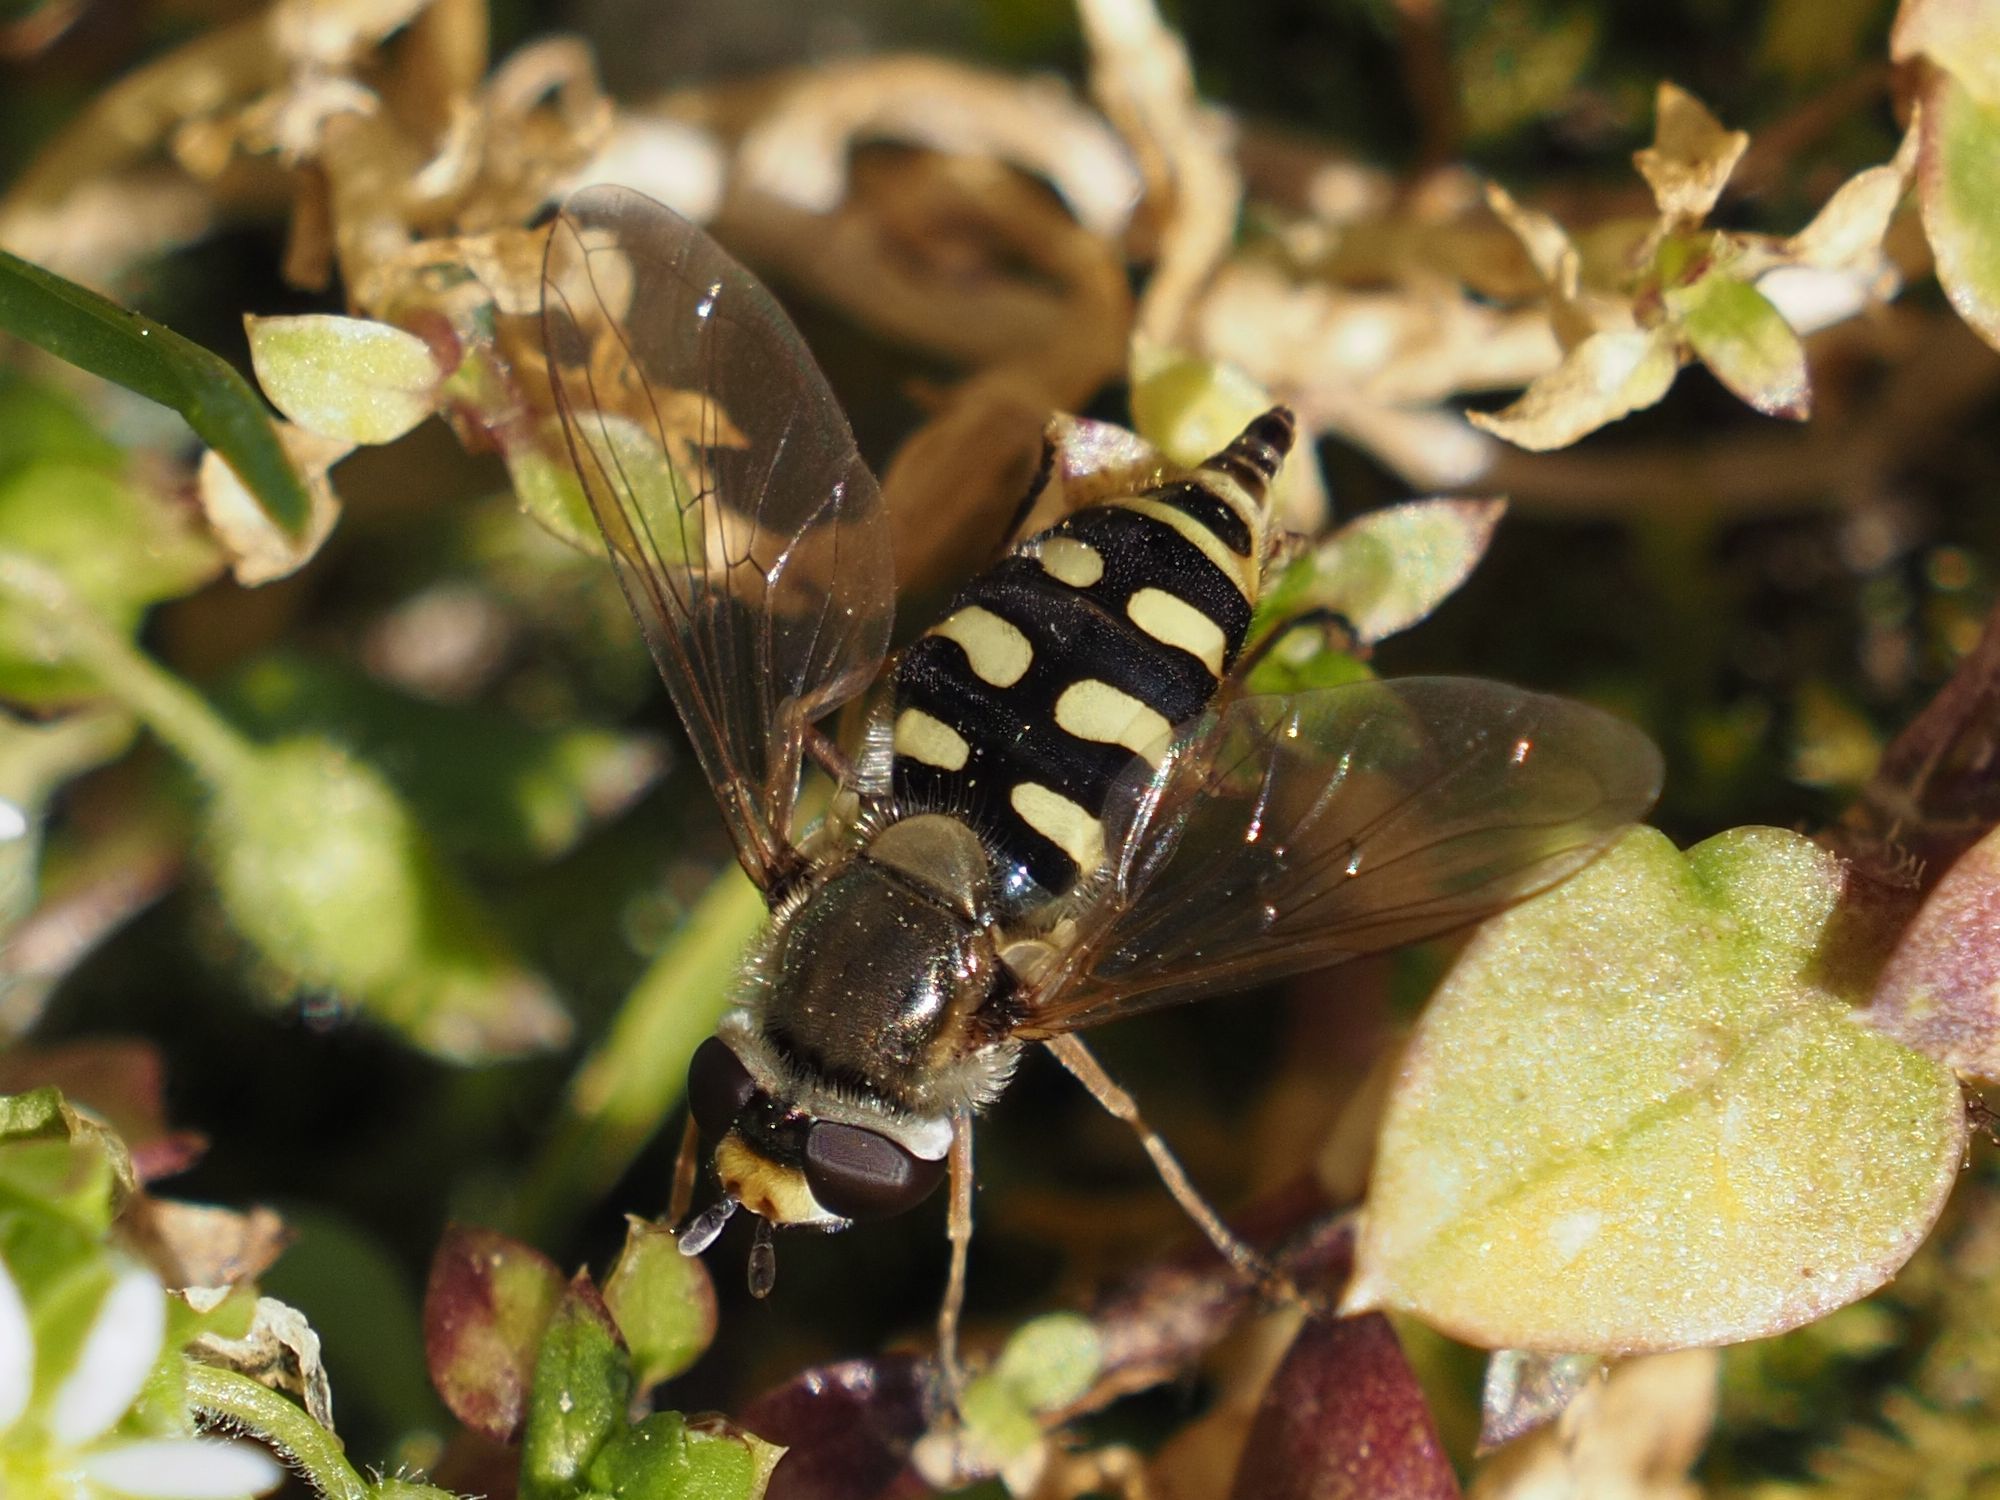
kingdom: Animalia
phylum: Arthropoda
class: Insecta
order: Diptera
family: Syrphidae
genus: Eupeodes
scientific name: Eupeodes corollae
